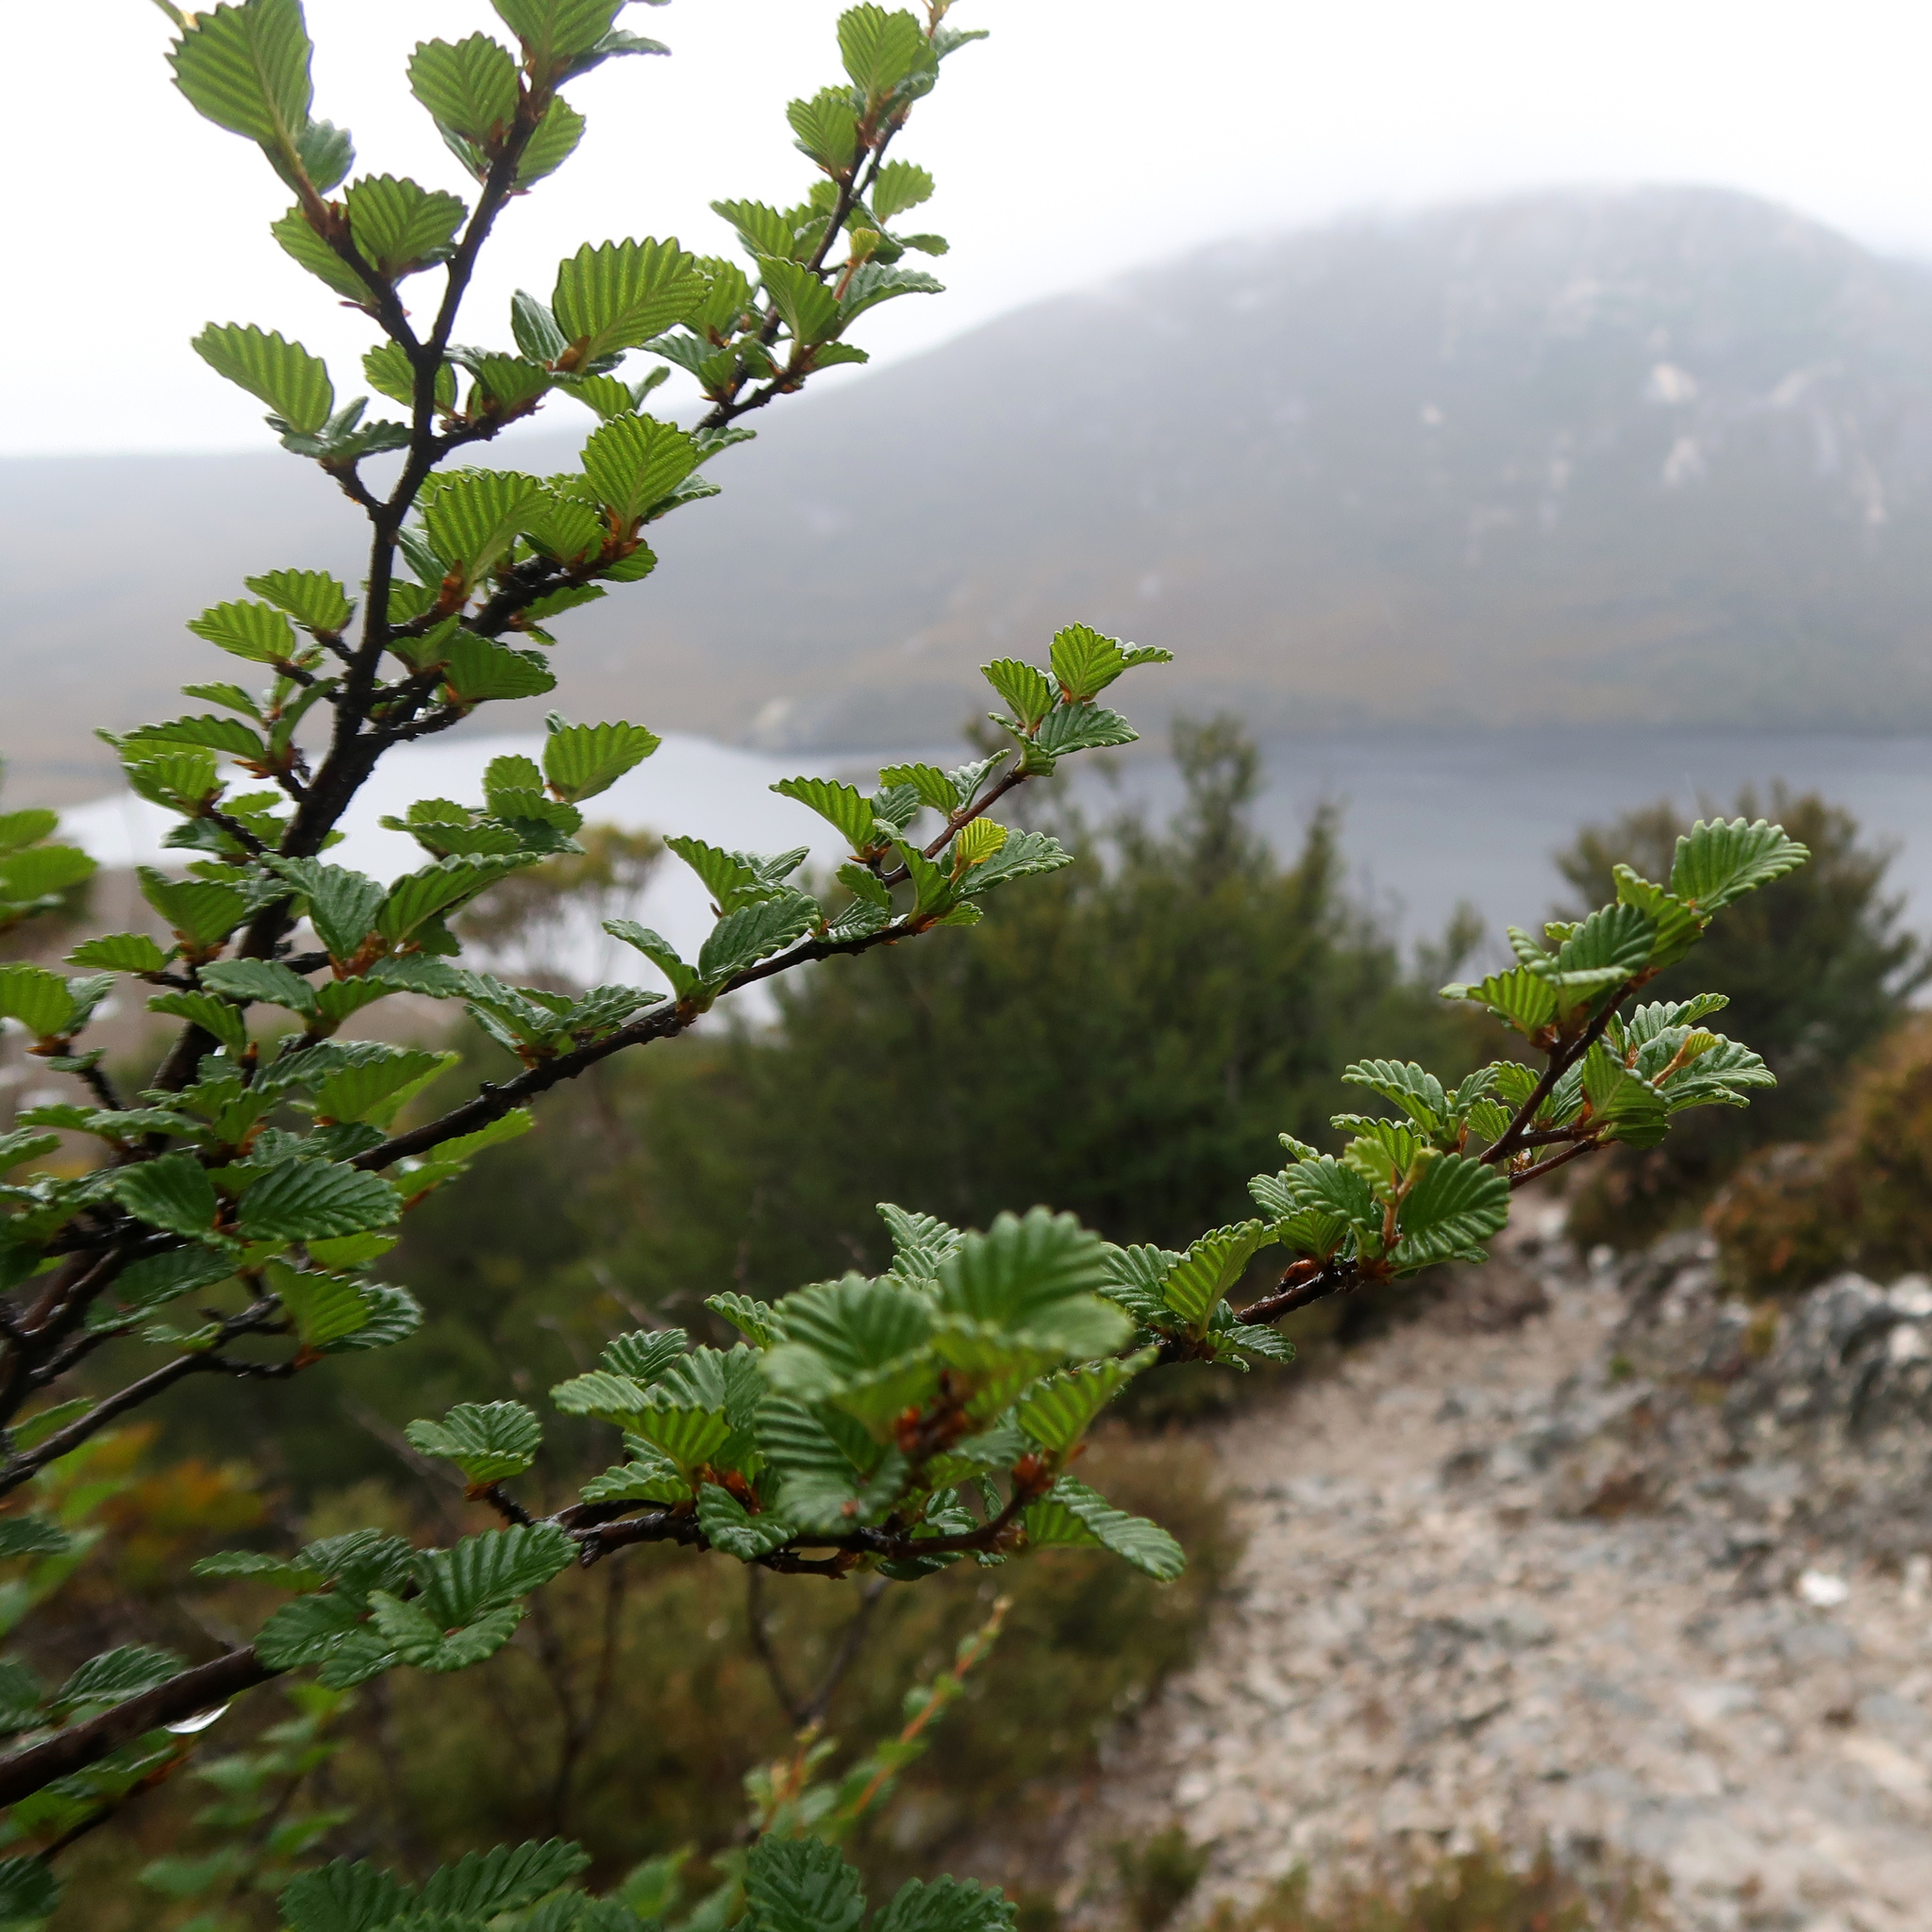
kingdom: Plantae
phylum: Tracheophyta
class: Magnoliopsida
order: Fagales
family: Nothofagaceae
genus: Nothofagus
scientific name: Nothofagus gunnii
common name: Tanglefoot
